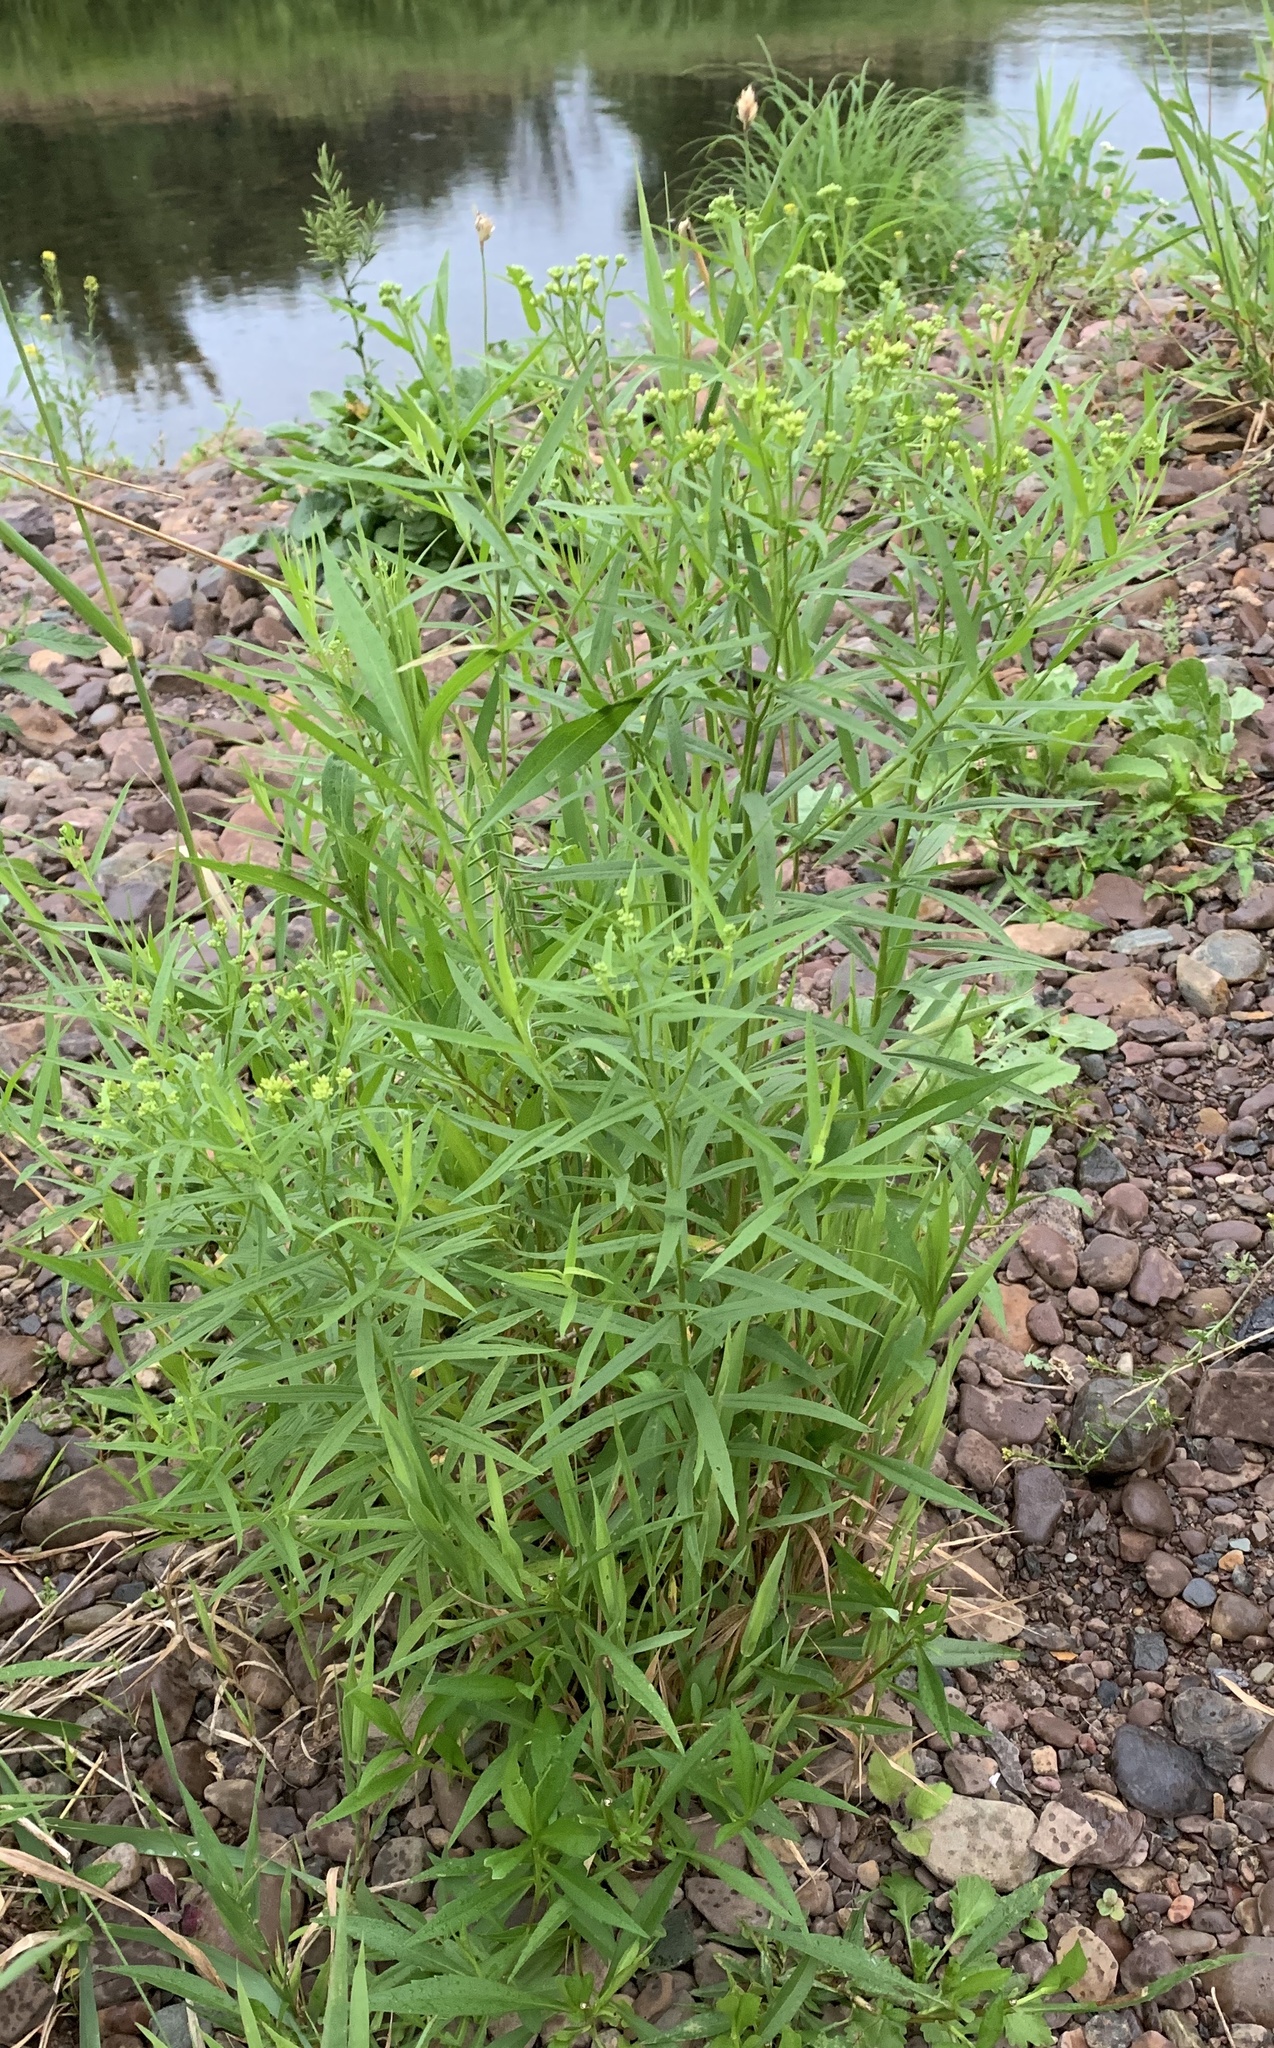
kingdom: Plantae
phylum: Tracheophyta
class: Magnoliopsida
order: Asterales
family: Asteraceae
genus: Euthamia
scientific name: Euthamia graminifolia
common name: Common goldentop
